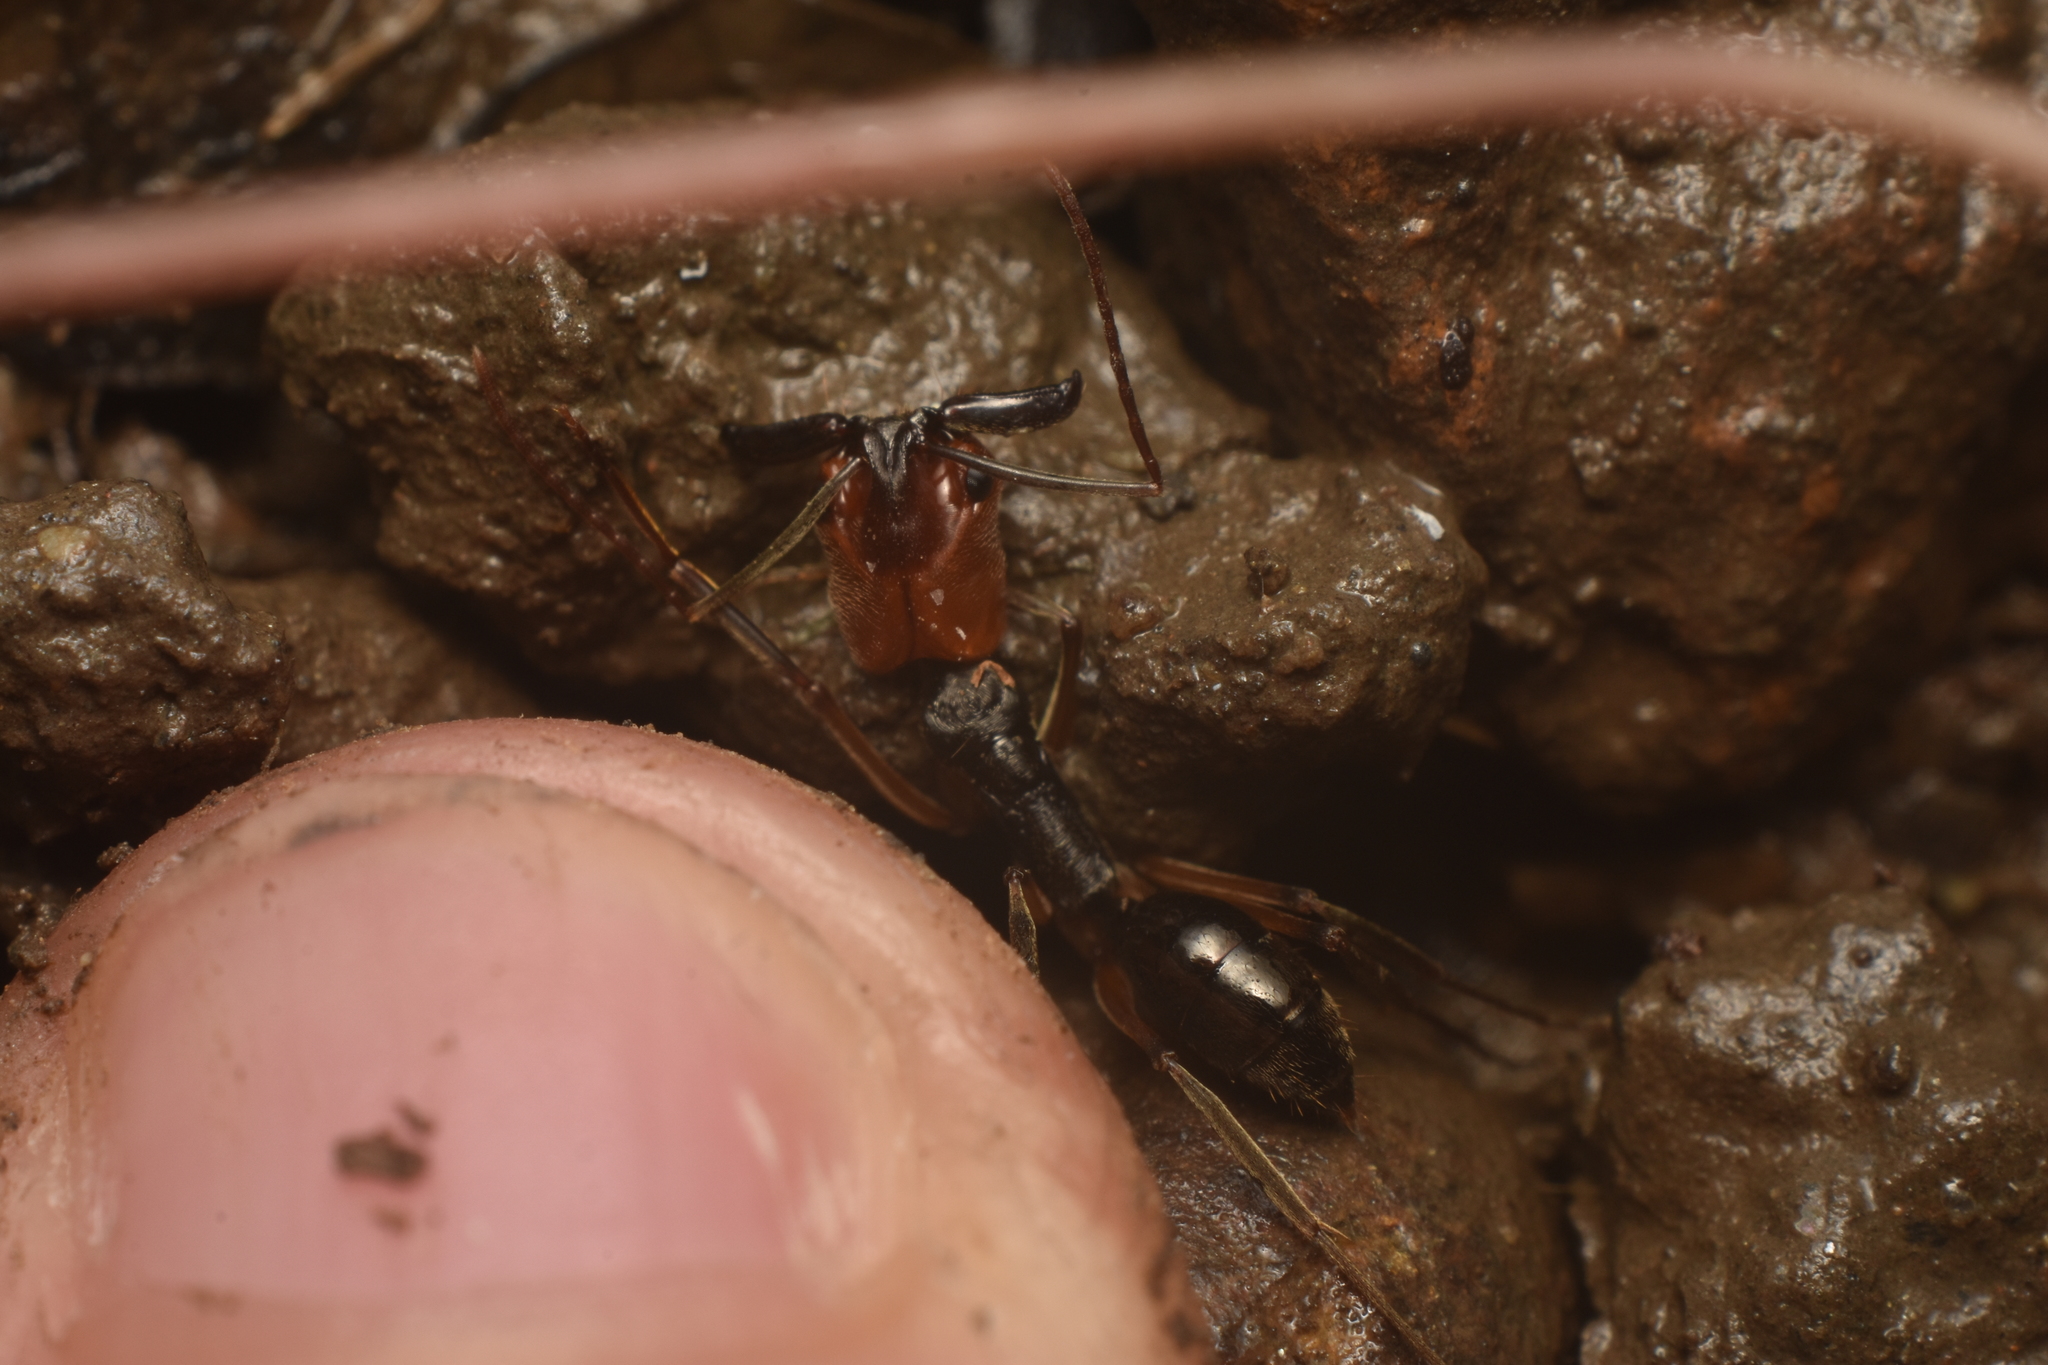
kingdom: Animalia
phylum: Arthropoda
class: Insecta
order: Hymenoptera
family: Formicidae
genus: Odontomachus
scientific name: Odontomachus erythrocephalus
